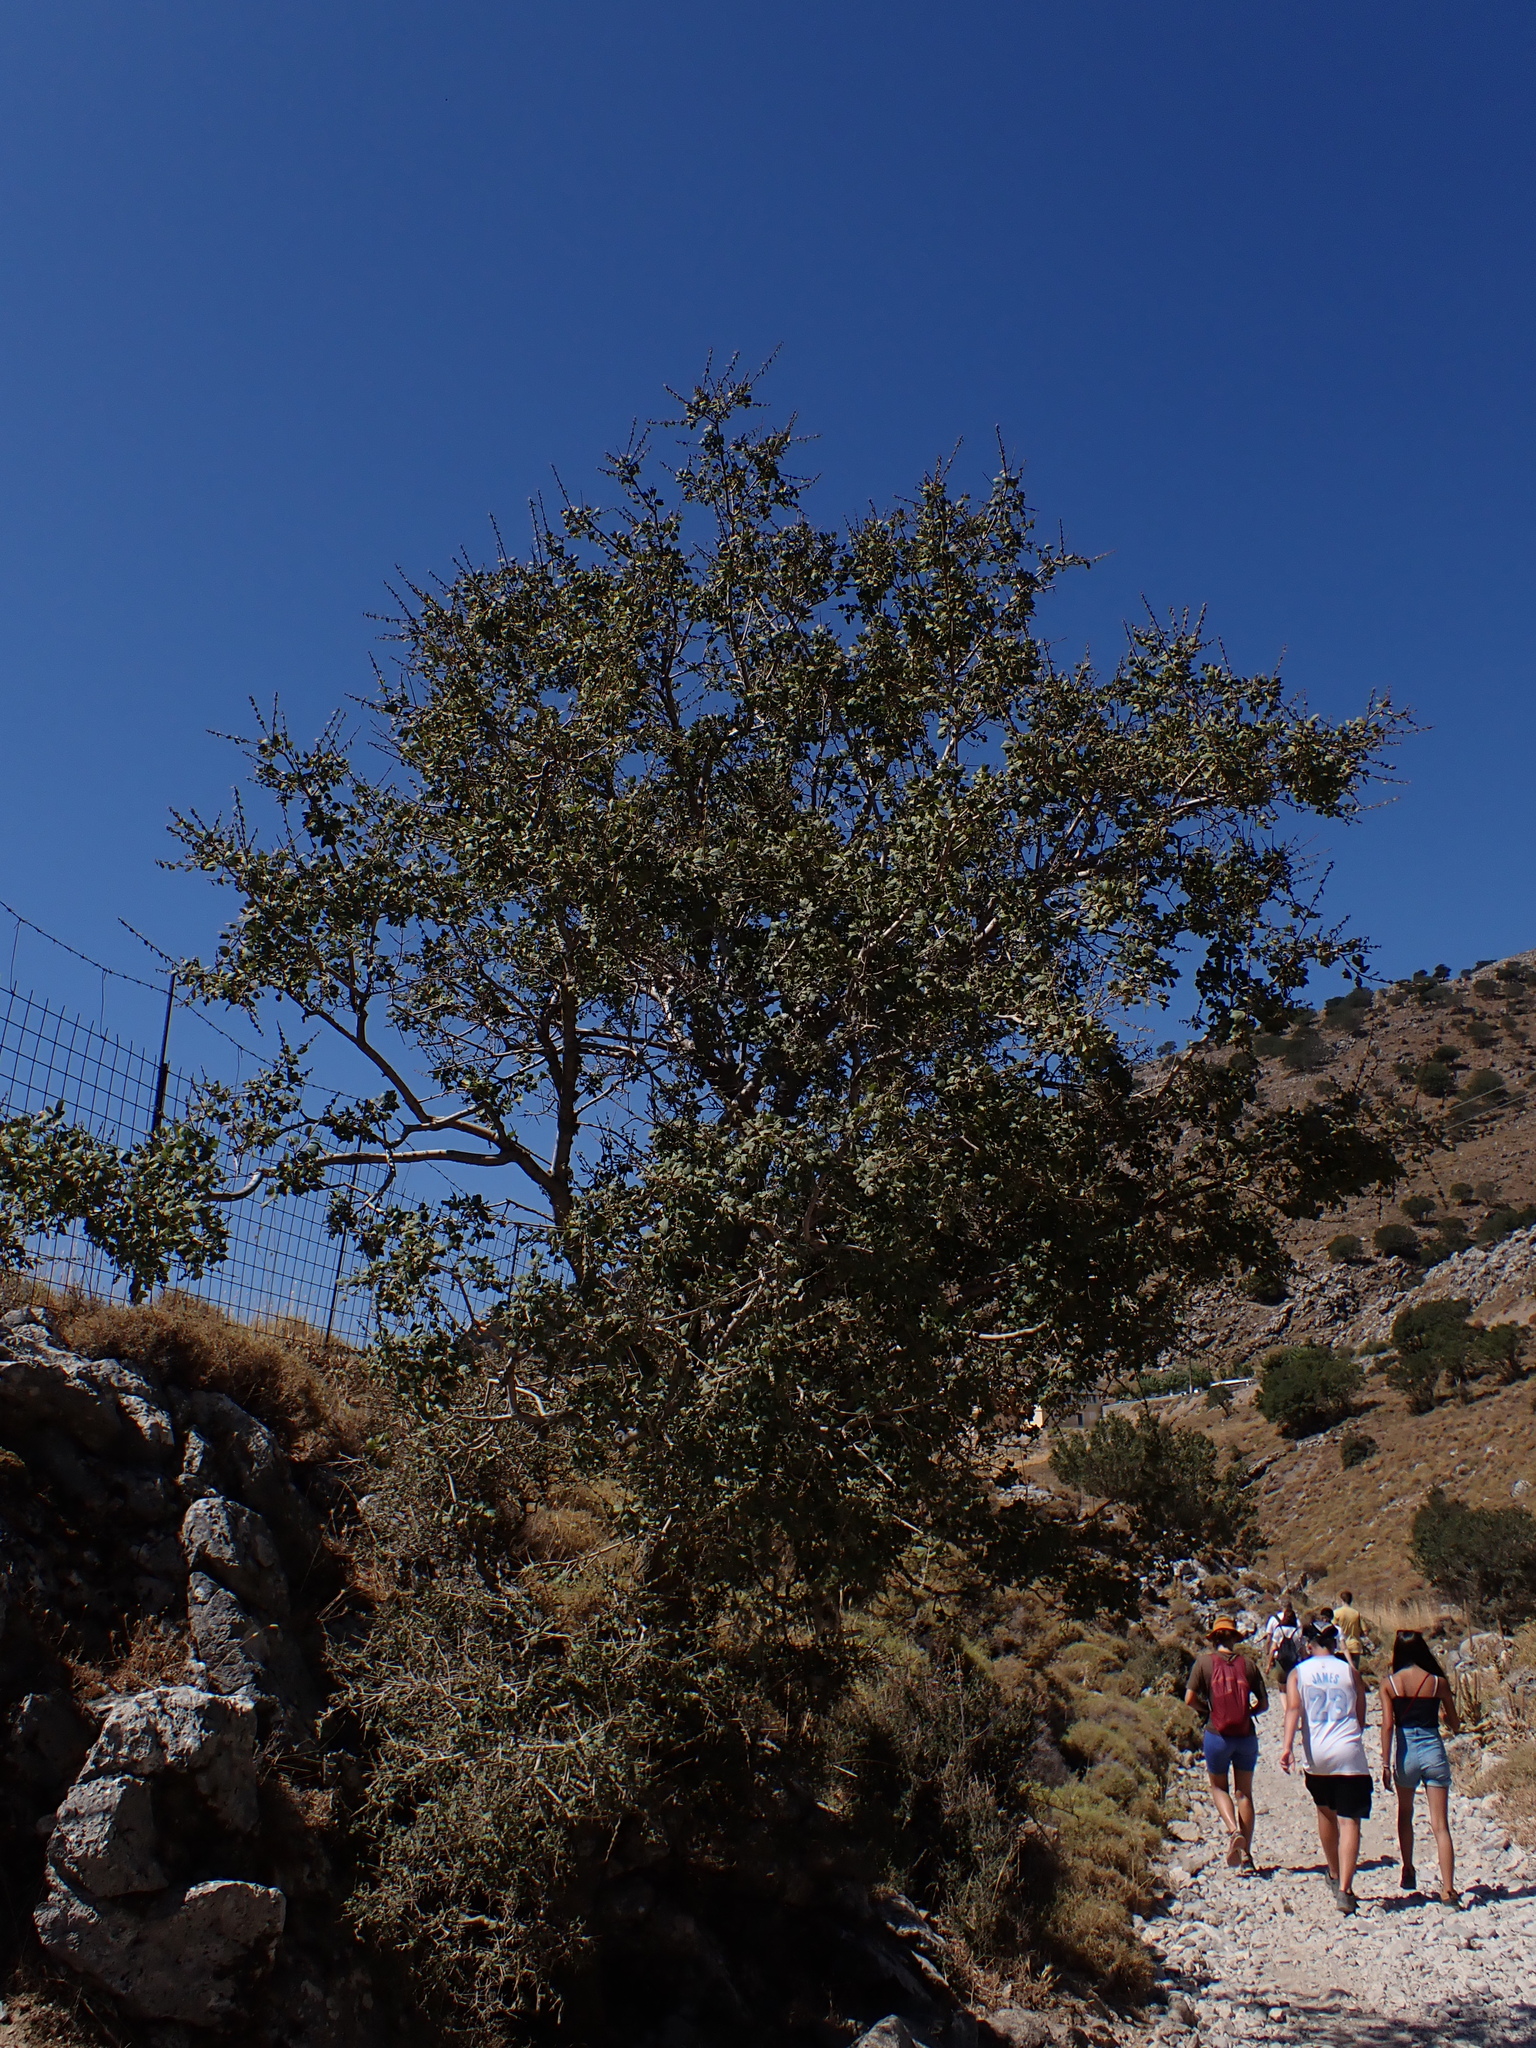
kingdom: Plantae
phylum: Tracheophyta
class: Magnoliopsida
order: Sapindales
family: Sapindaceae
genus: Acer
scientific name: Acer sempervirens
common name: Cretan maple
